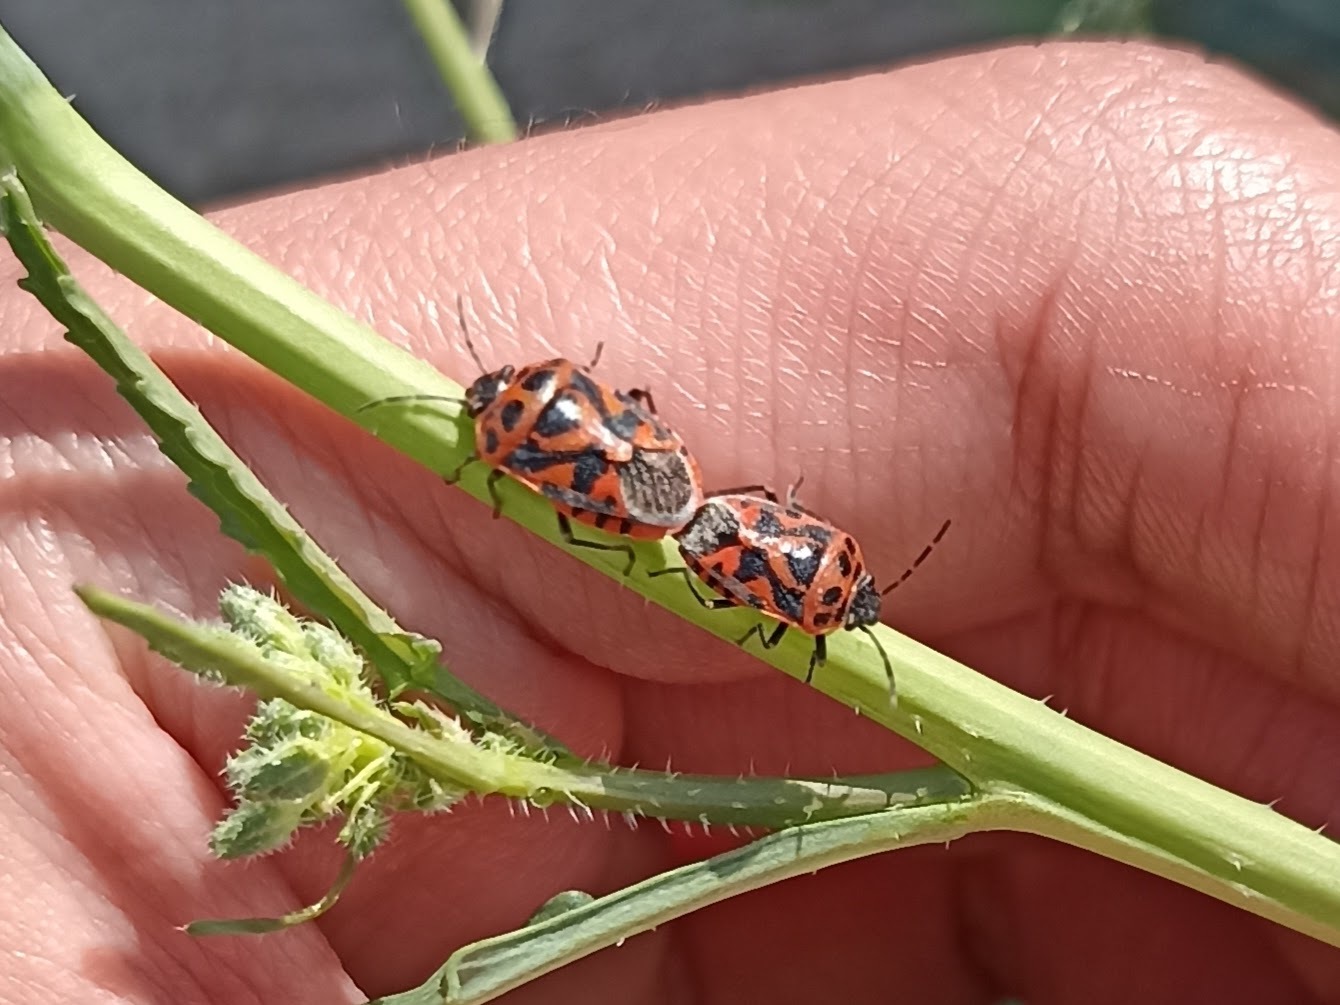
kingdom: Animalia
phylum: Arthropoda
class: Insecta
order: Hemiptera
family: Pentatomidae
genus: Eurydema
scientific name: Eurydema ornata
